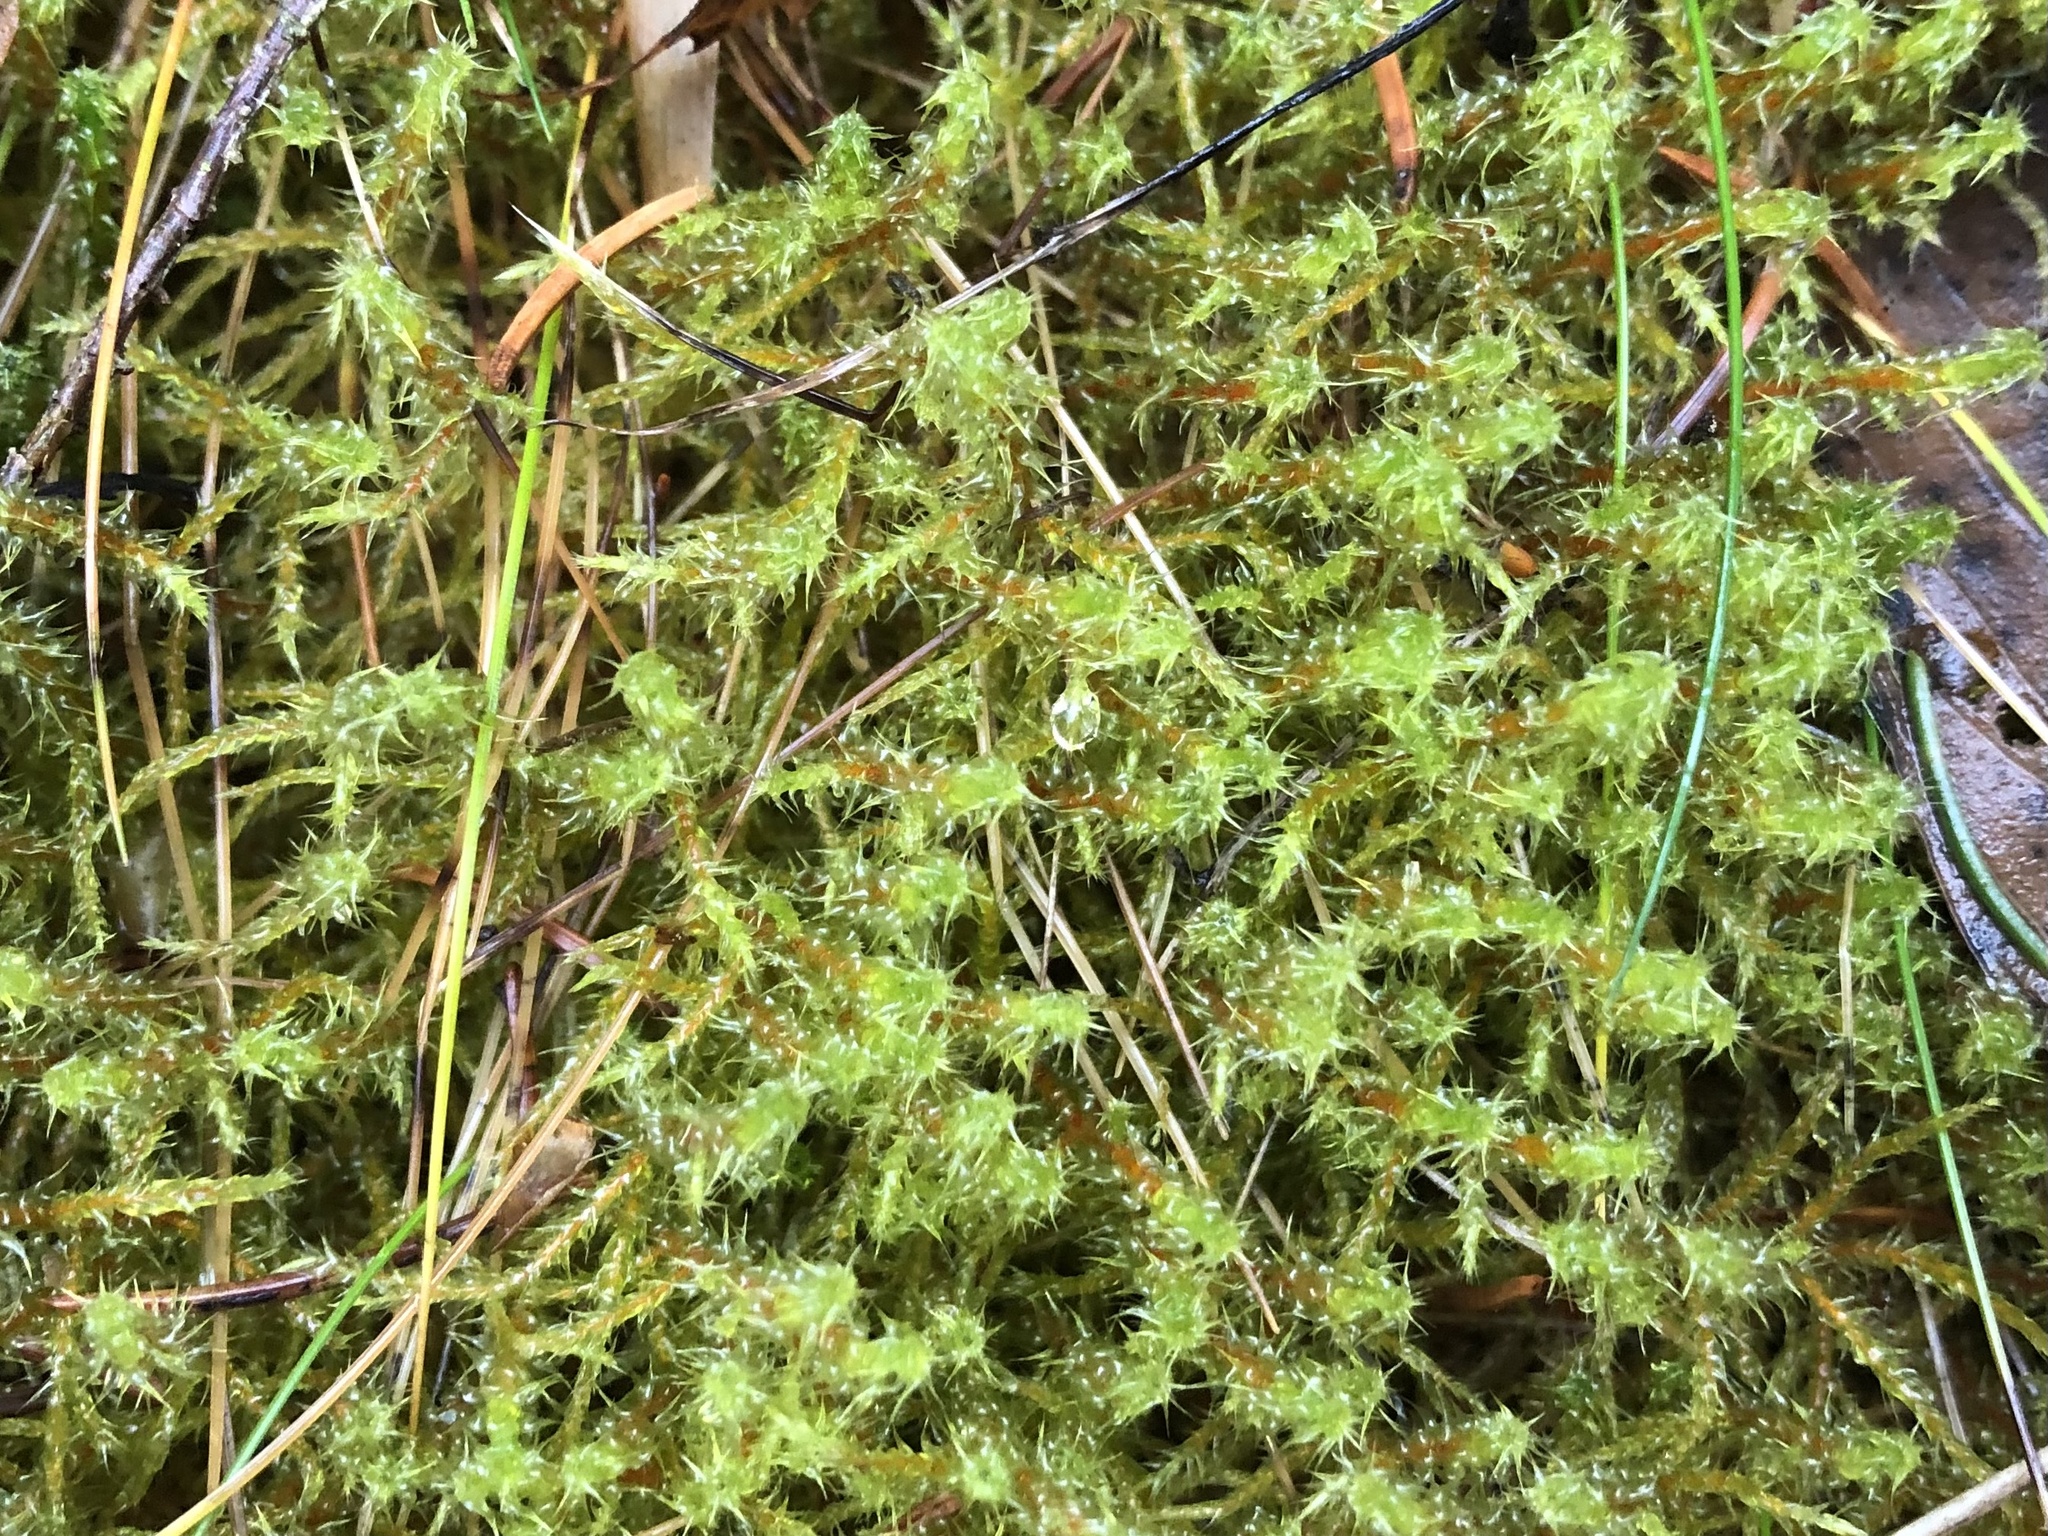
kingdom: Plantae
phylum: Bryophyta
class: Bryopsida
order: Hypnales
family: Hylocomiaceae
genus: Rhytidiadelphus
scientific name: Rhytidiadelphus squarrosus
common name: Springy turf-moss
